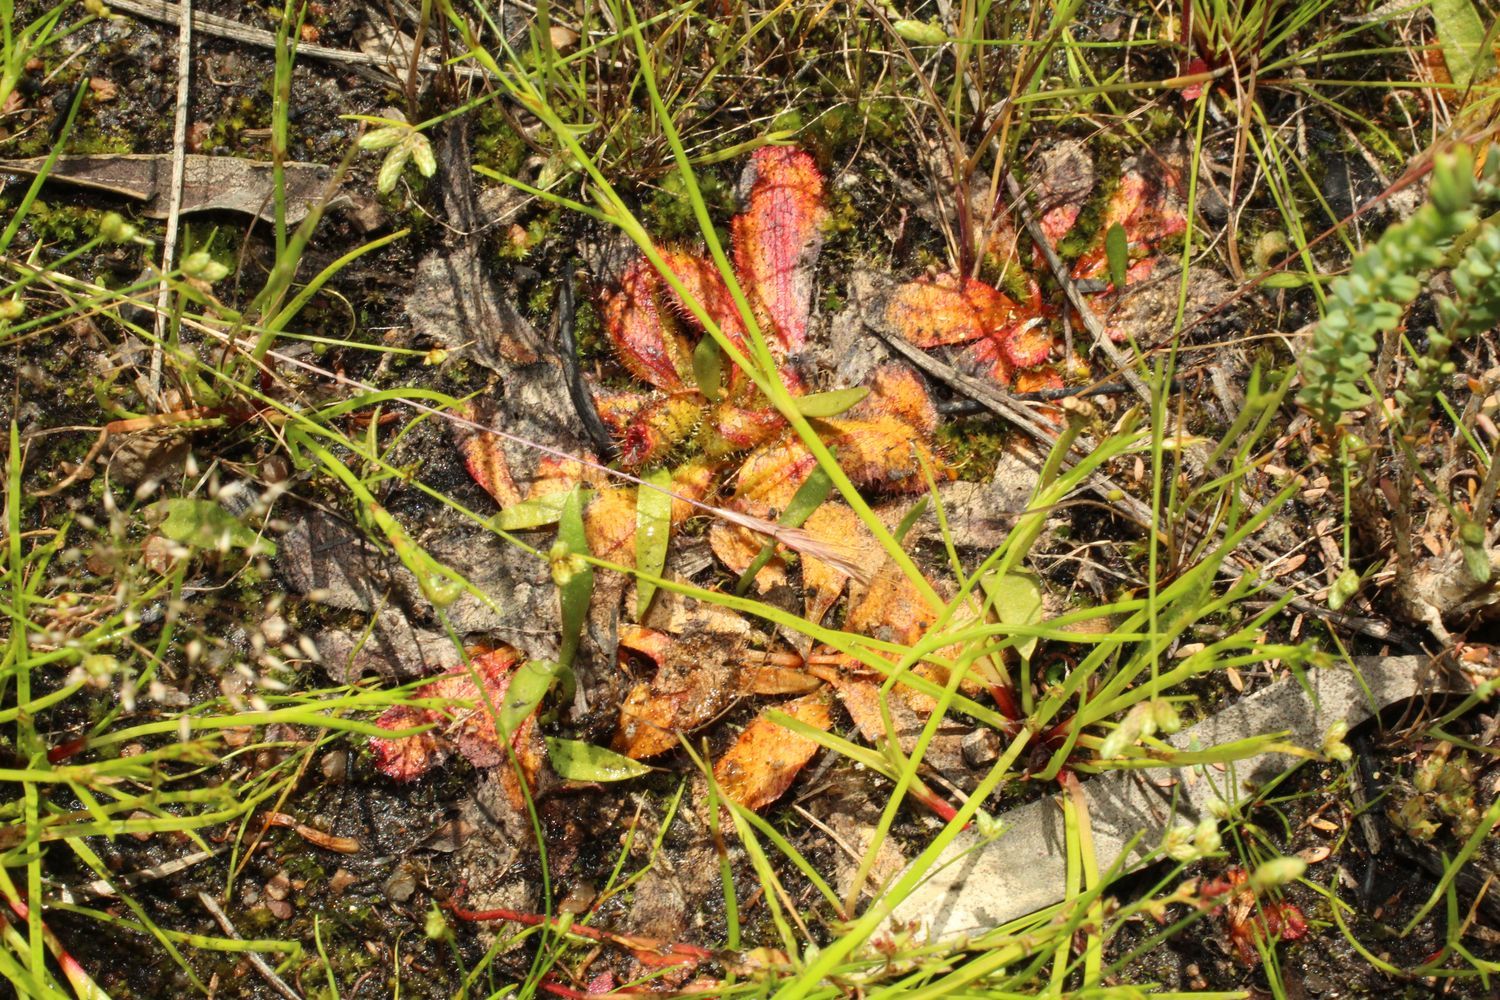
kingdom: Plantae
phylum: Tracheophyta
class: Magnoliopsida
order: Caryophyllales
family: Droseraceae
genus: Drosera
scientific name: Drosera bulbosa
